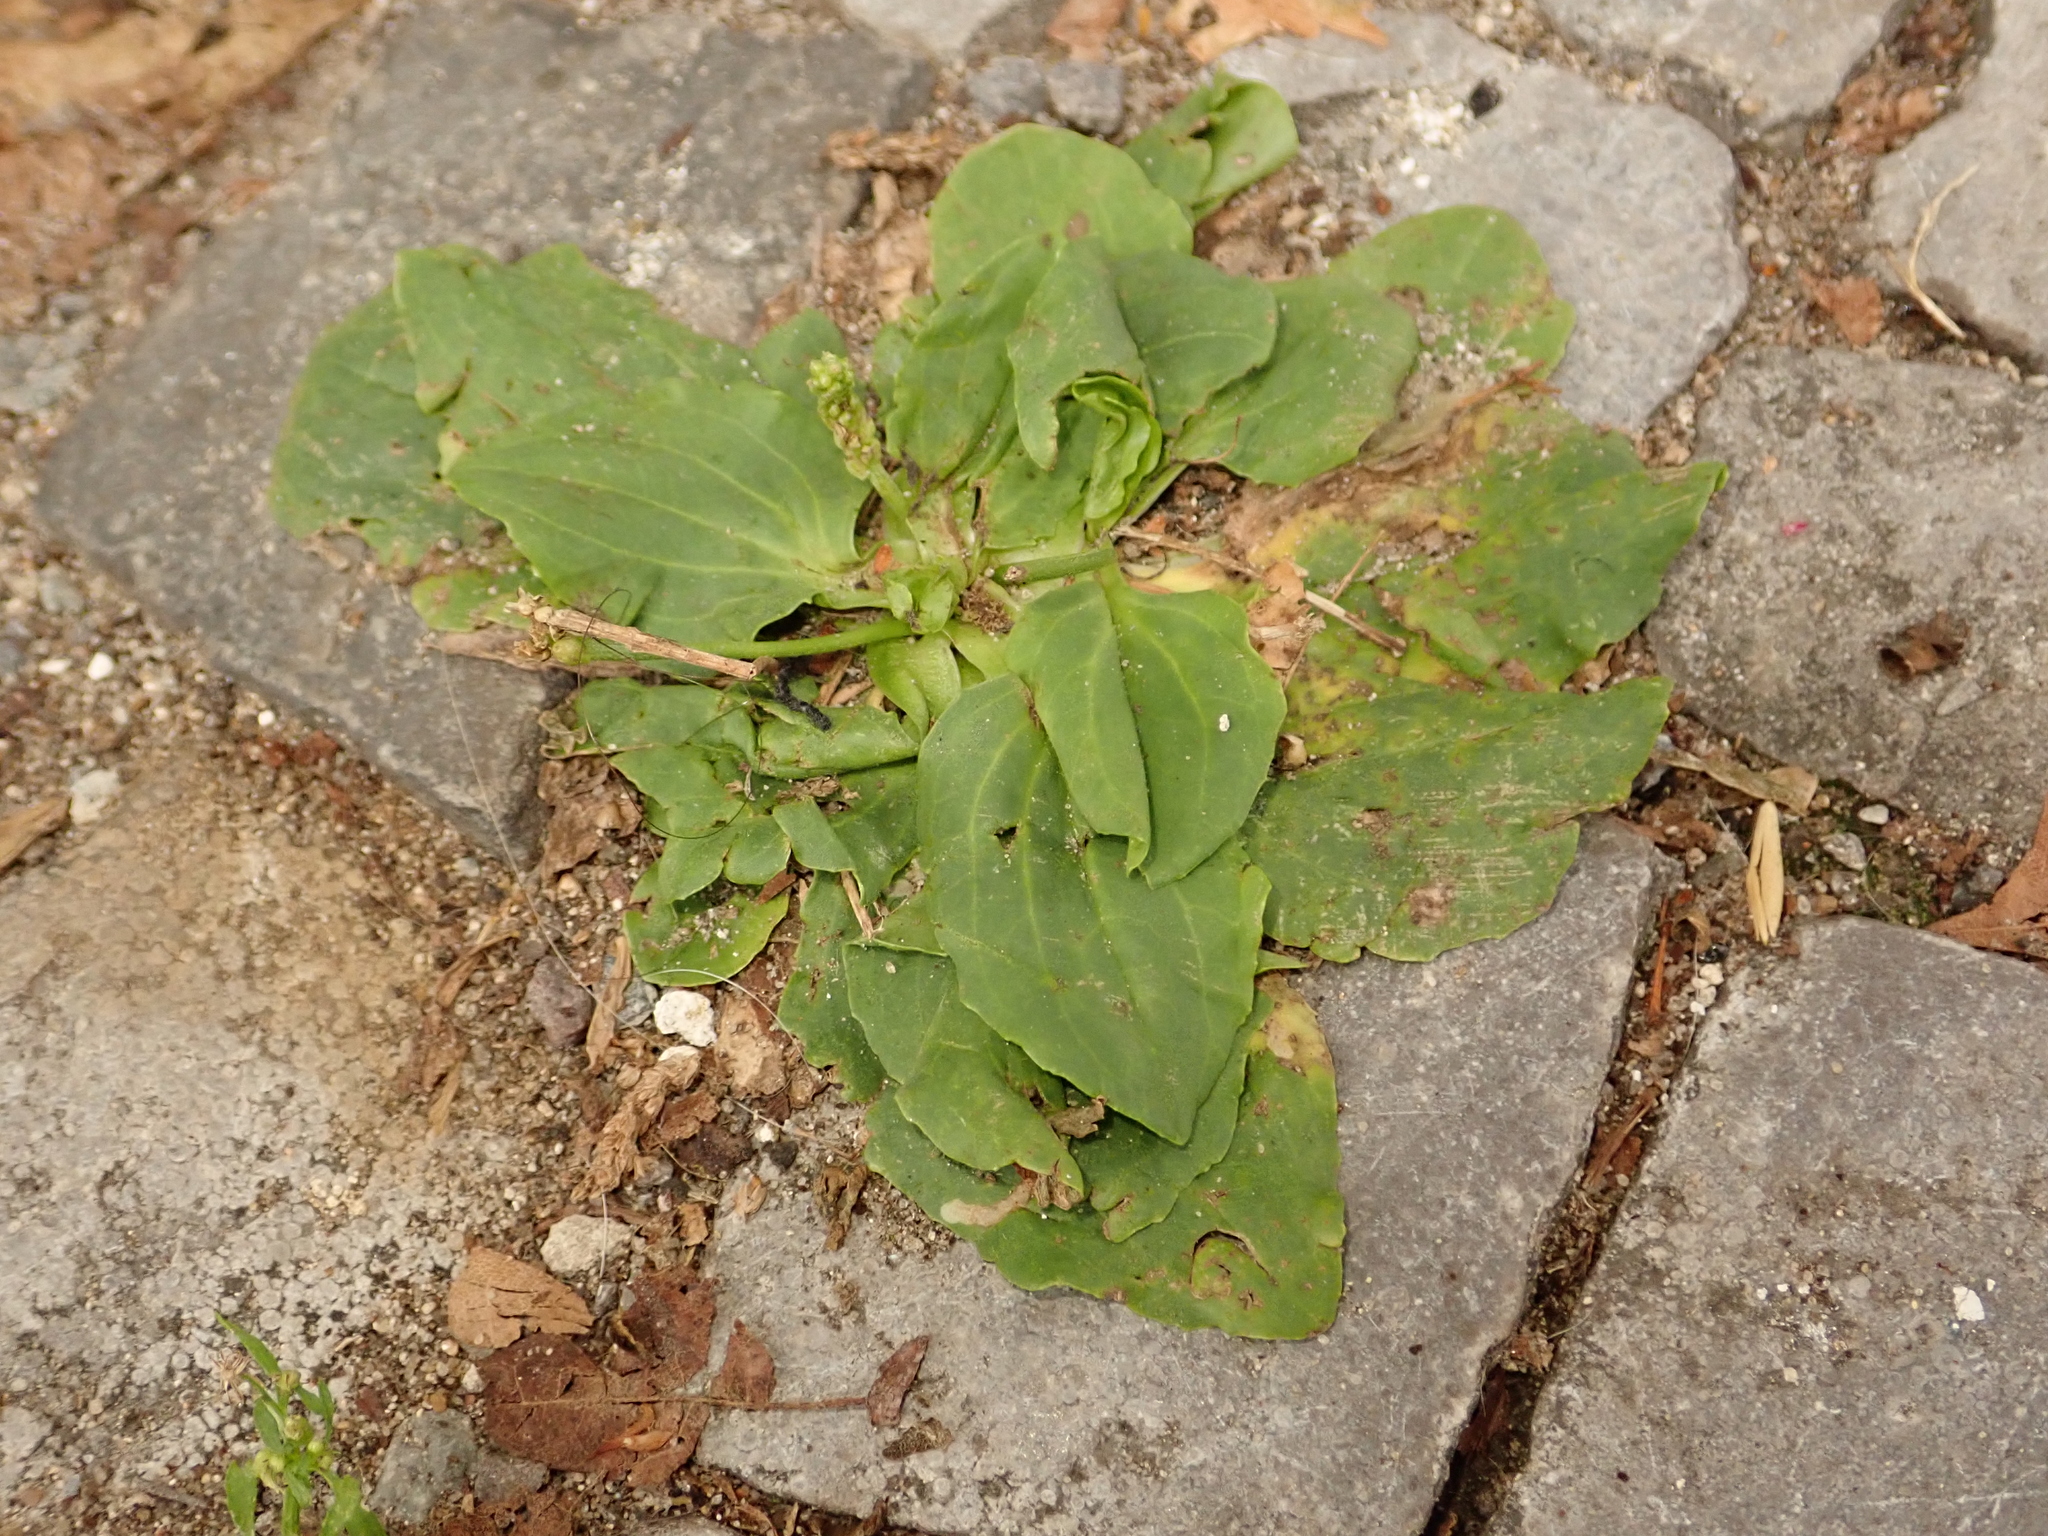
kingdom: Plantae
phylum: Tracheophyta
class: Magnoliopsida
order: Lamiales
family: Plantaginaceae
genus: Plantago
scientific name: Plantago major
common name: Common plantain
